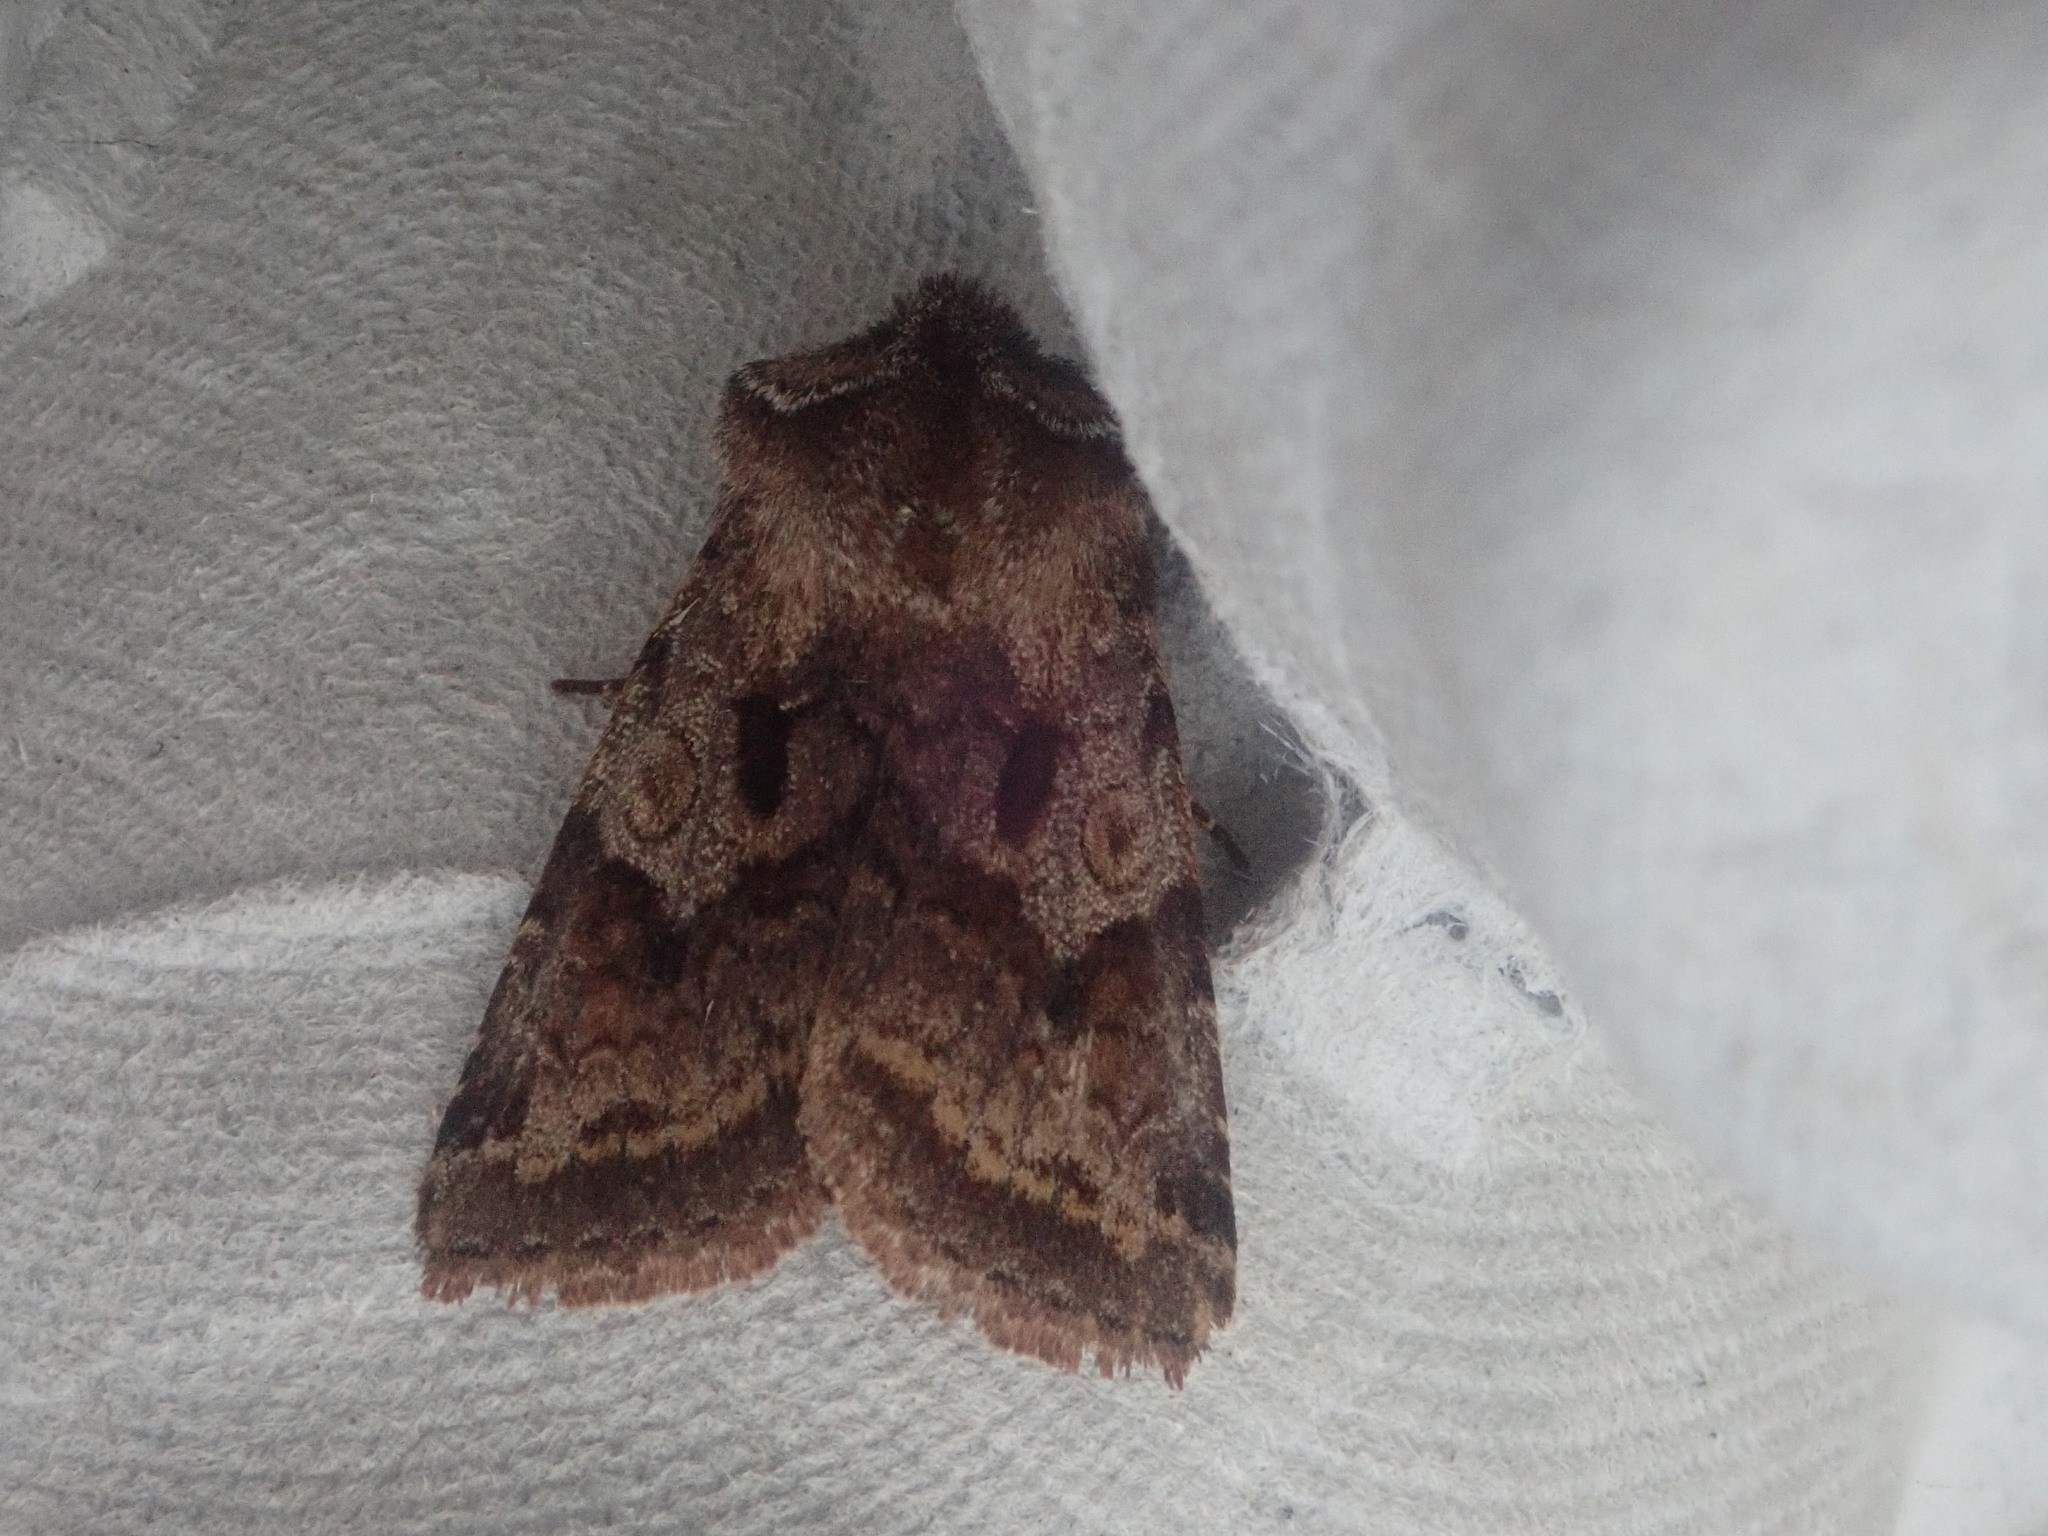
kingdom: Animalia
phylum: Arthropoda
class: Insecta
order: Lepidoptera
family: Noctuidae
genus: Cerastis
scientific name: Cerastis salicarum
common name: Willow dart
